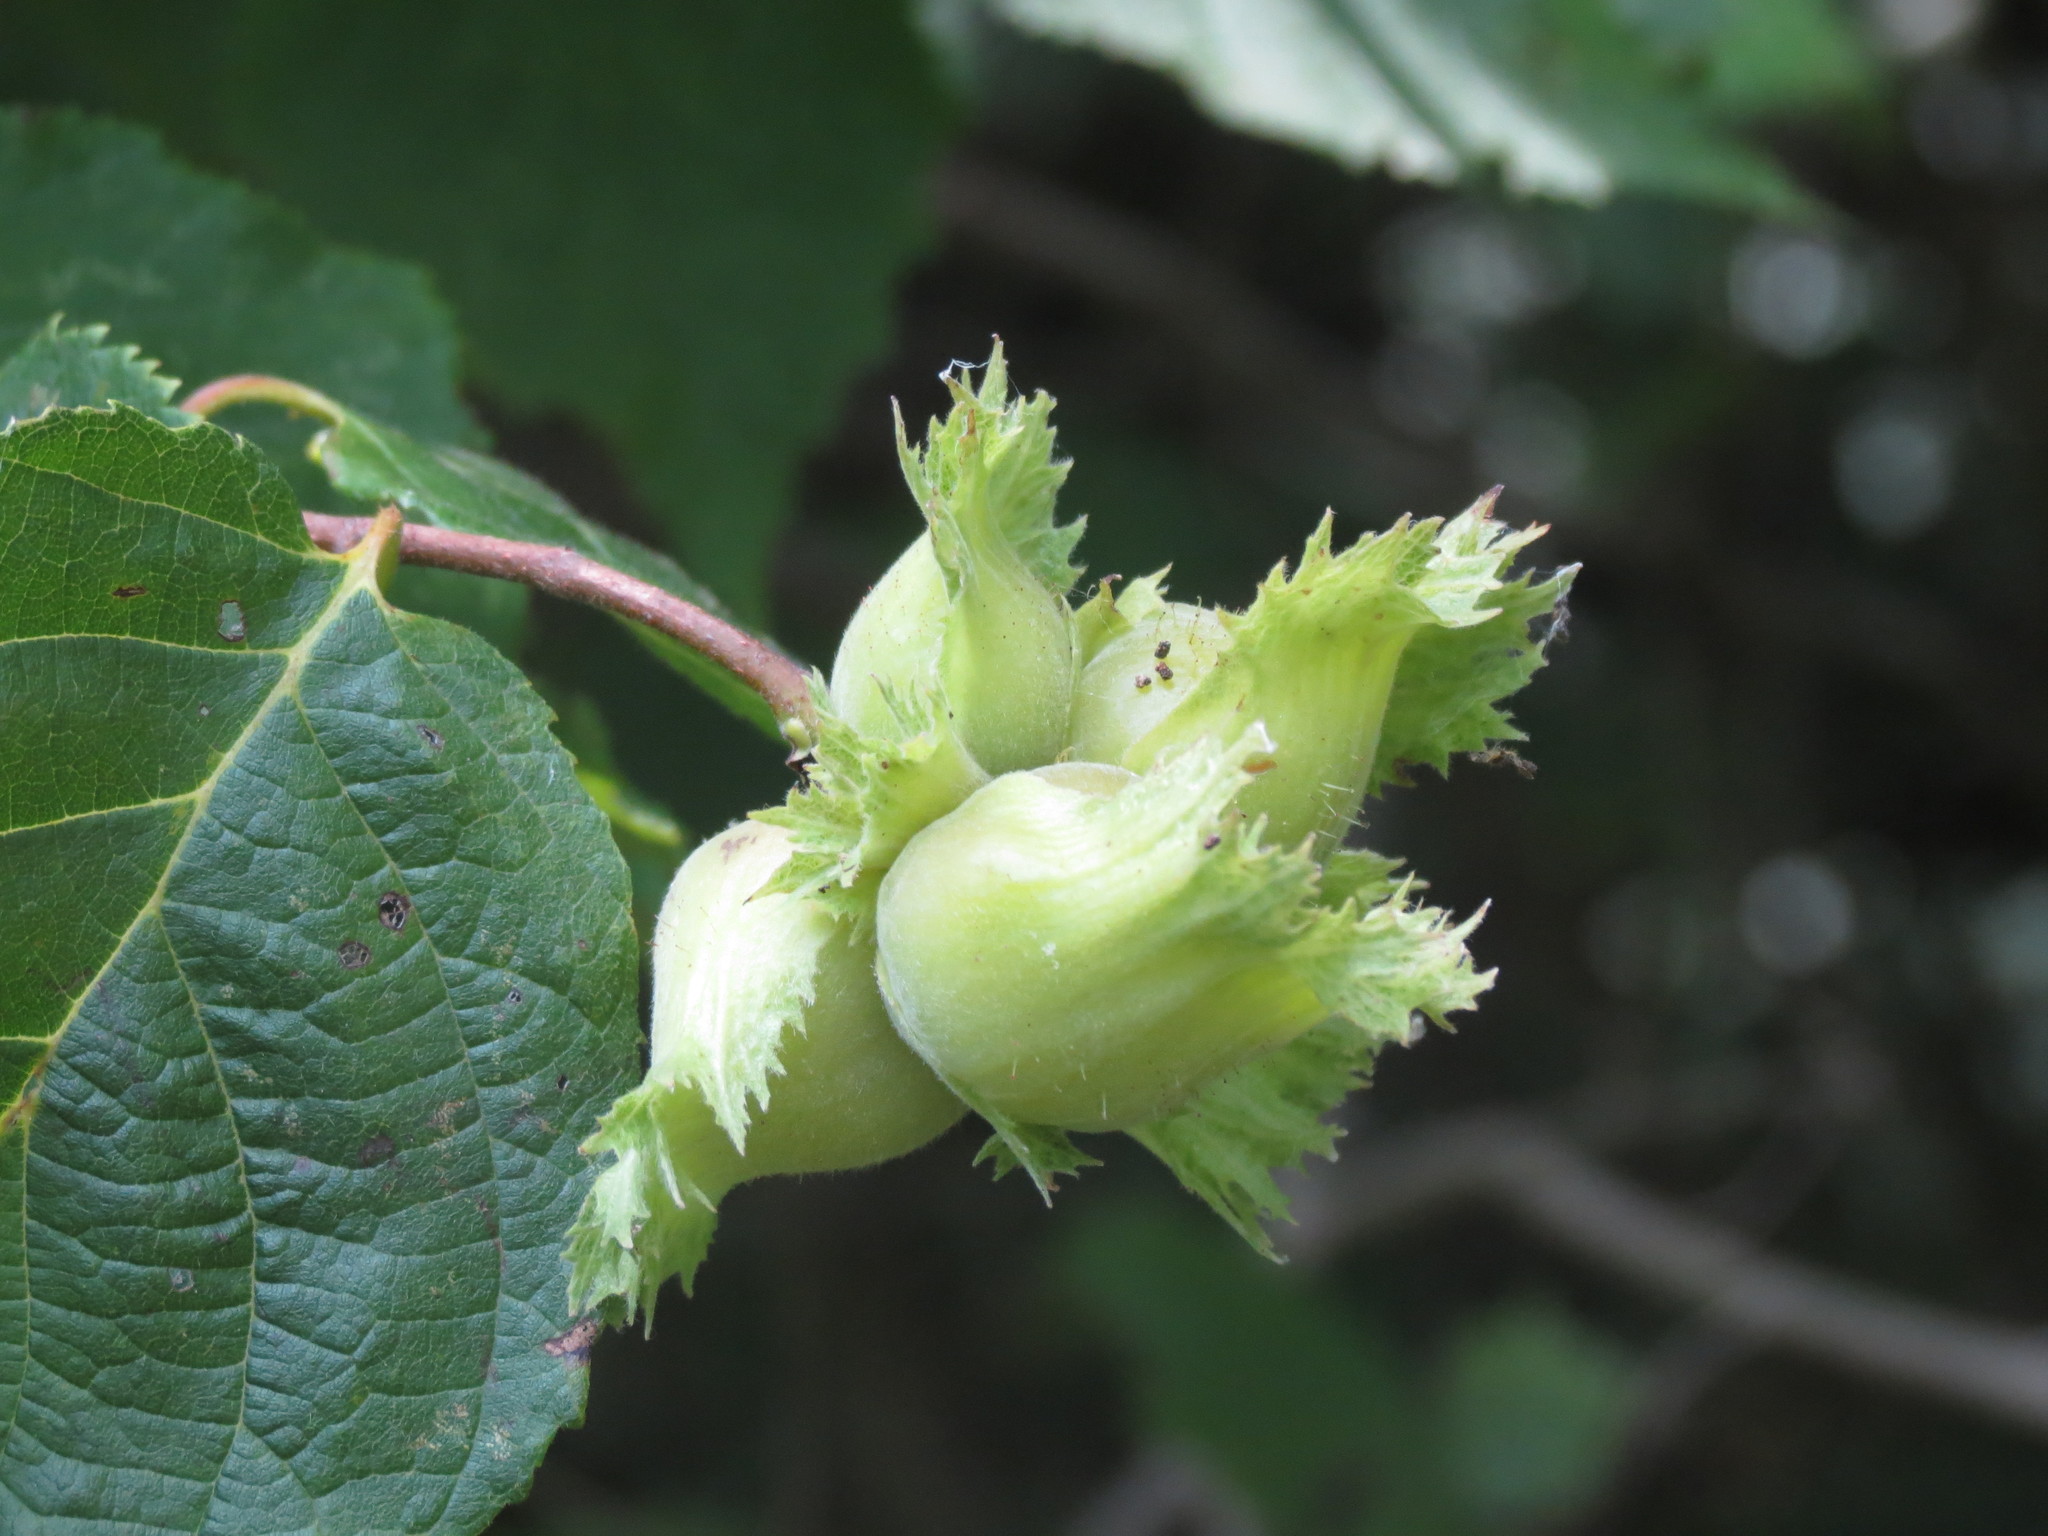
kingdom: Plantae
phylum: Tracheophyta
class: Magnoliopsida
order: Fagales
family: Betulaceae
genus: Corylus
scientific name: Corylus americana
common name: American hazel
